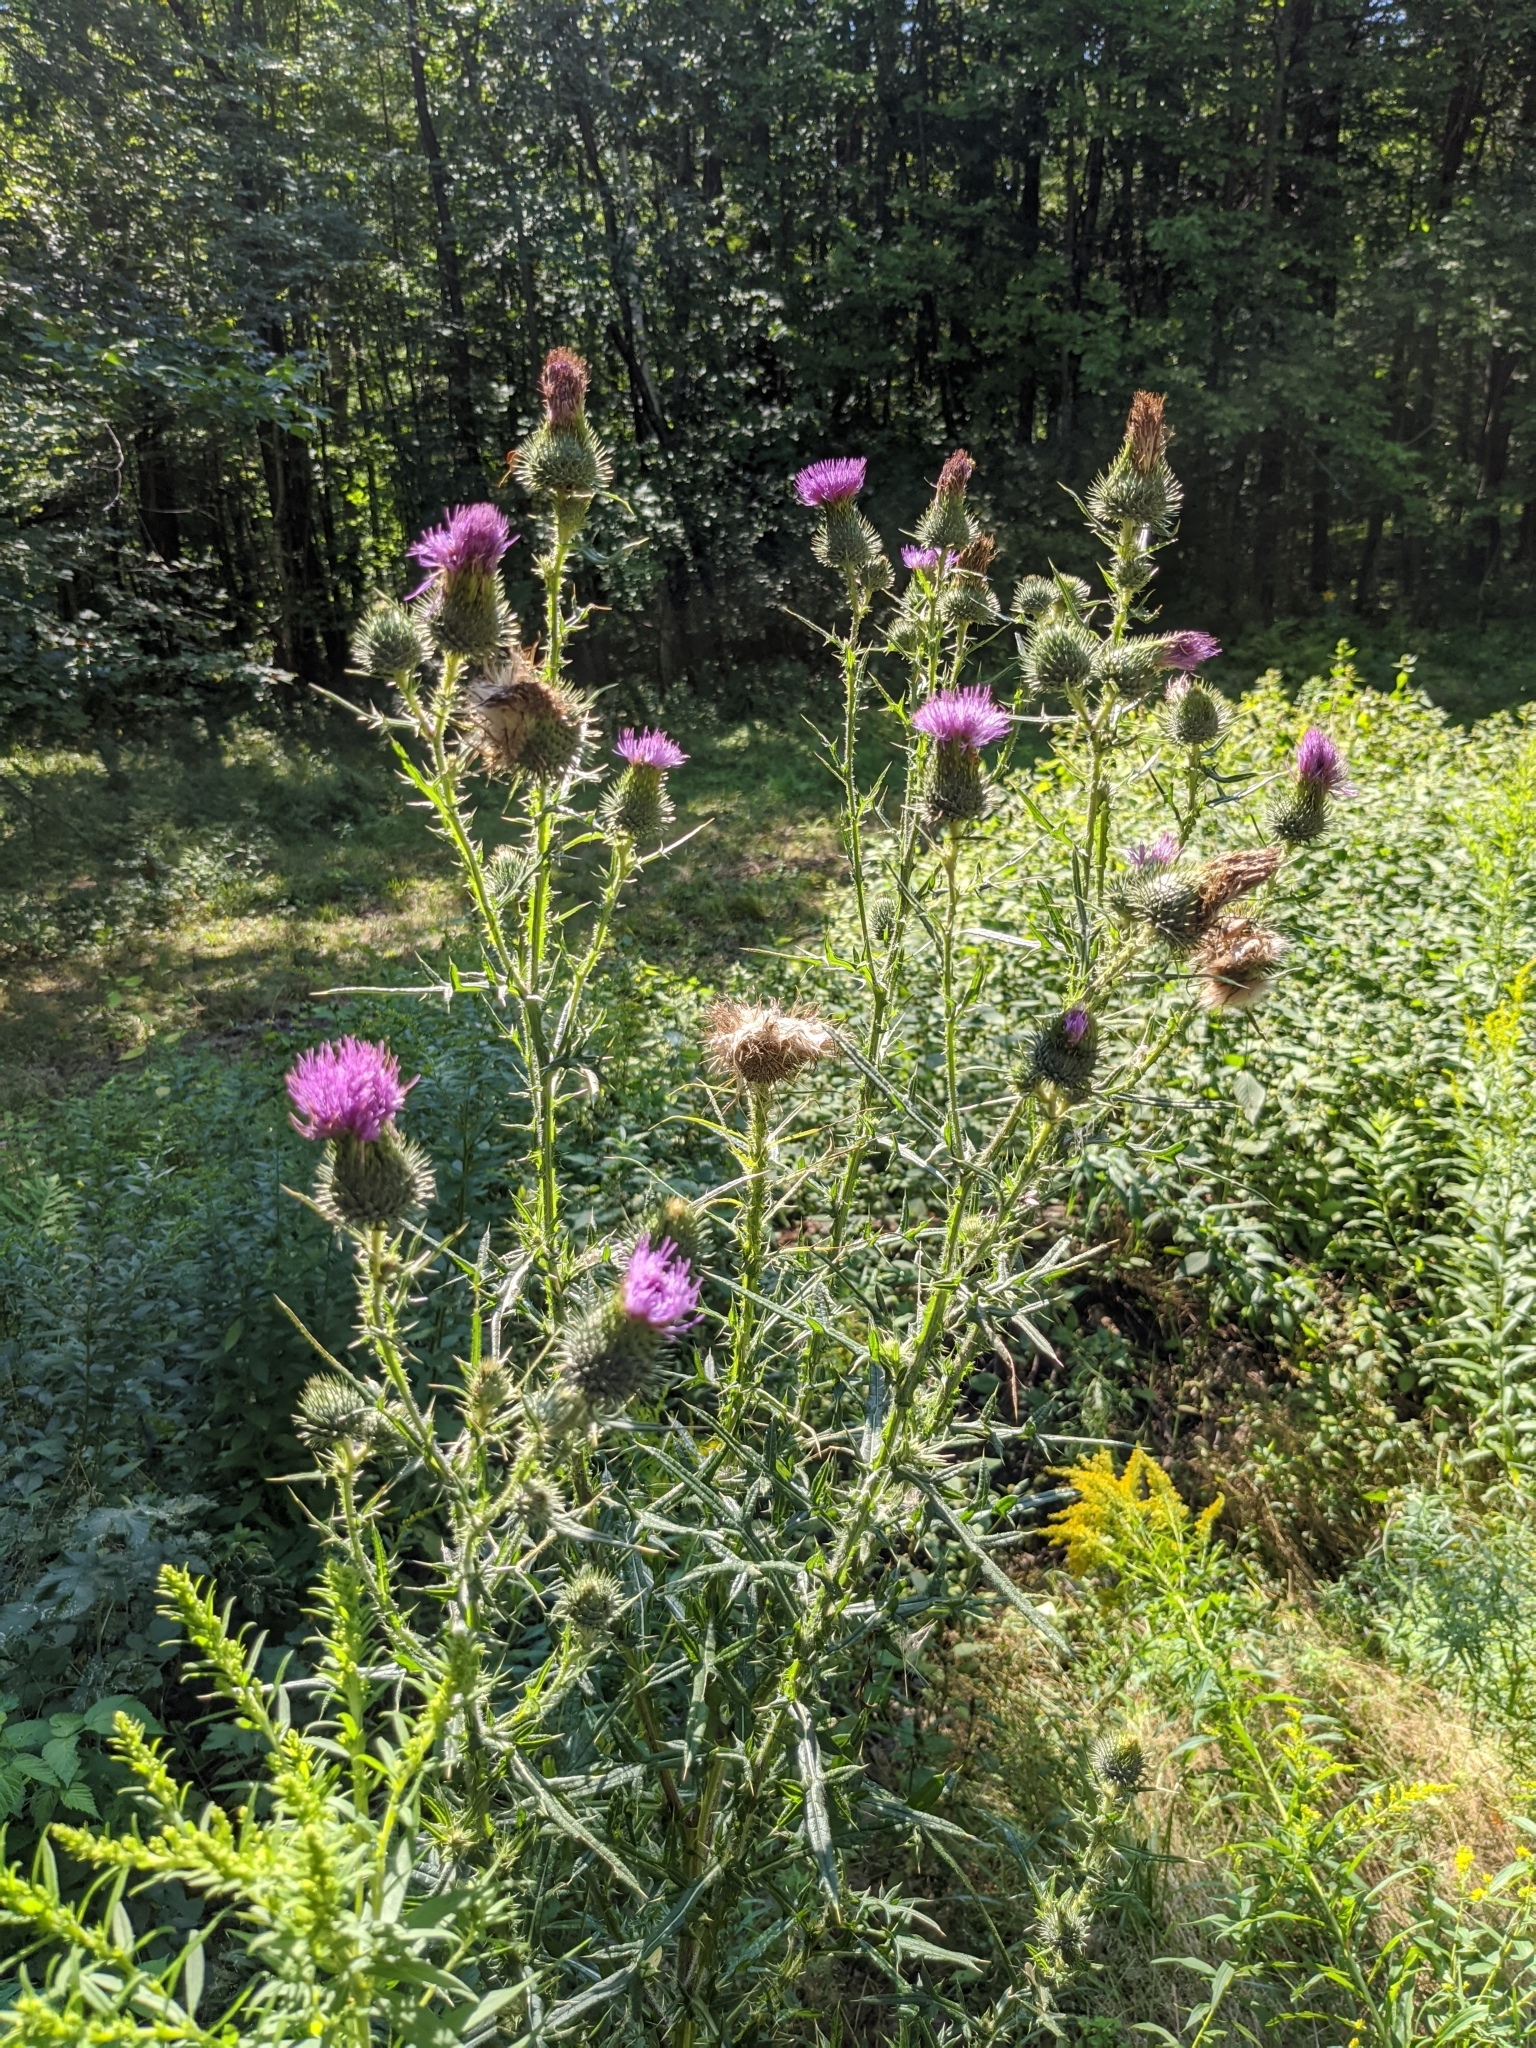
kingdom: Plantae
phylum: Tracheophyta
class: Magnoliopsida
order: Asterales
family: Asteraceae
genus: Cirsium
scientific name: Cirsium vulgare
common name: Bull thistle
